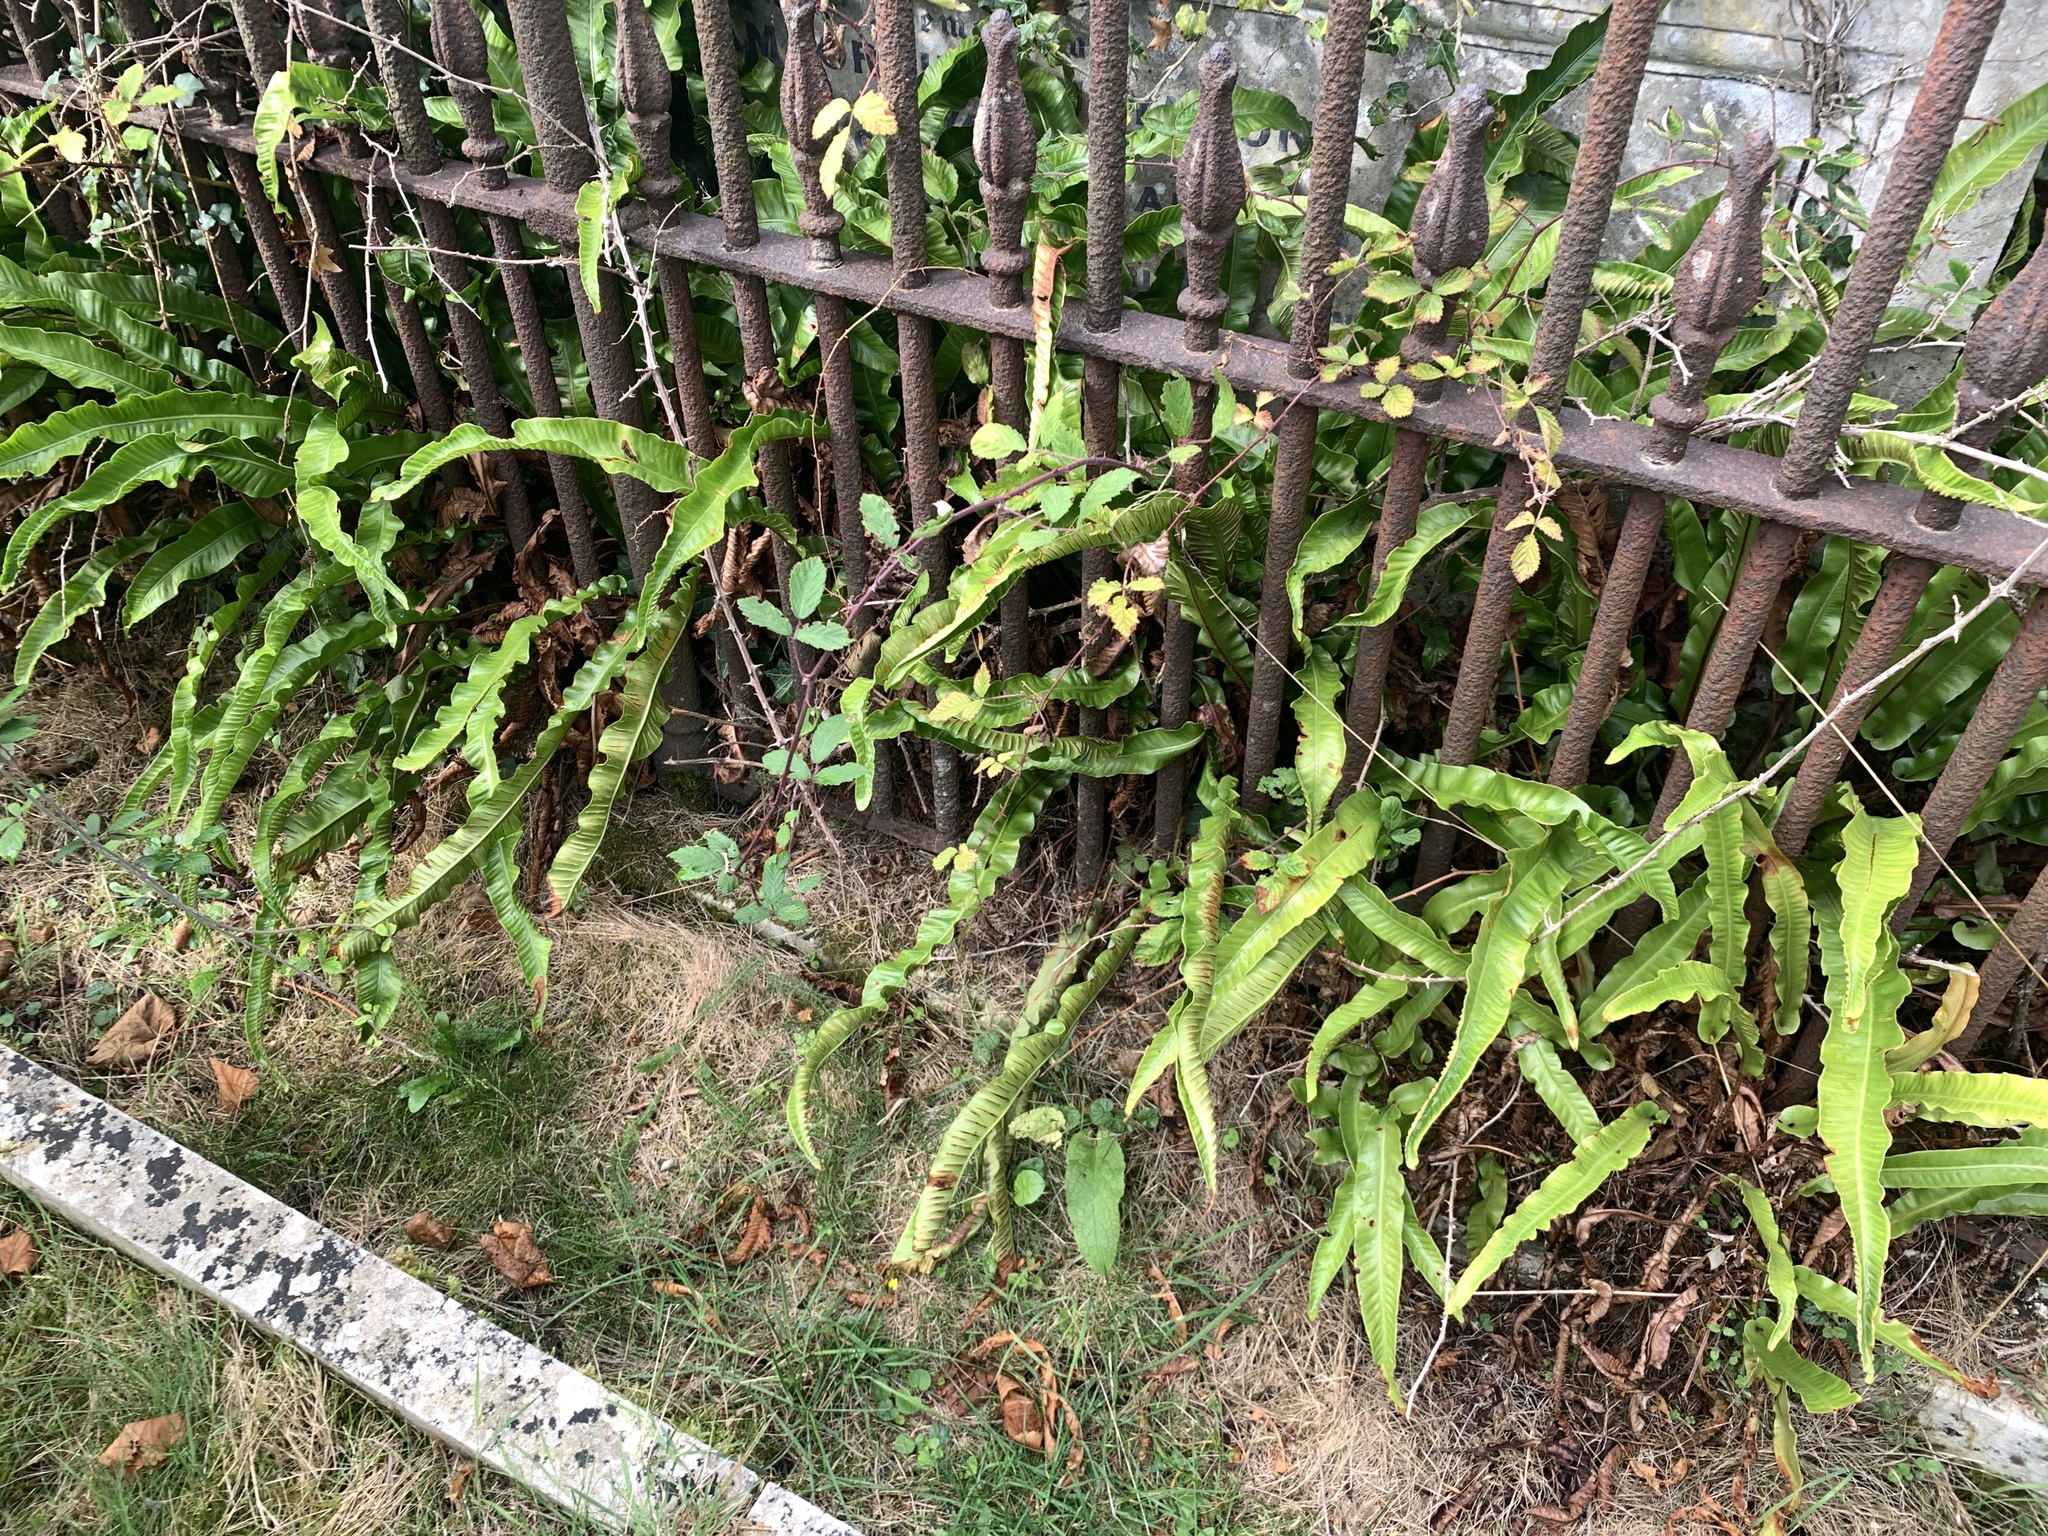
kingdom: Plantae
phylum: Tracheophyta
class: Polypodiopsida
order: Polypodiales
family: Aspleniaceae
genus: Asplenium
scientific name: Asplenium scolopendrium
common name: Hart's-tongue fern
